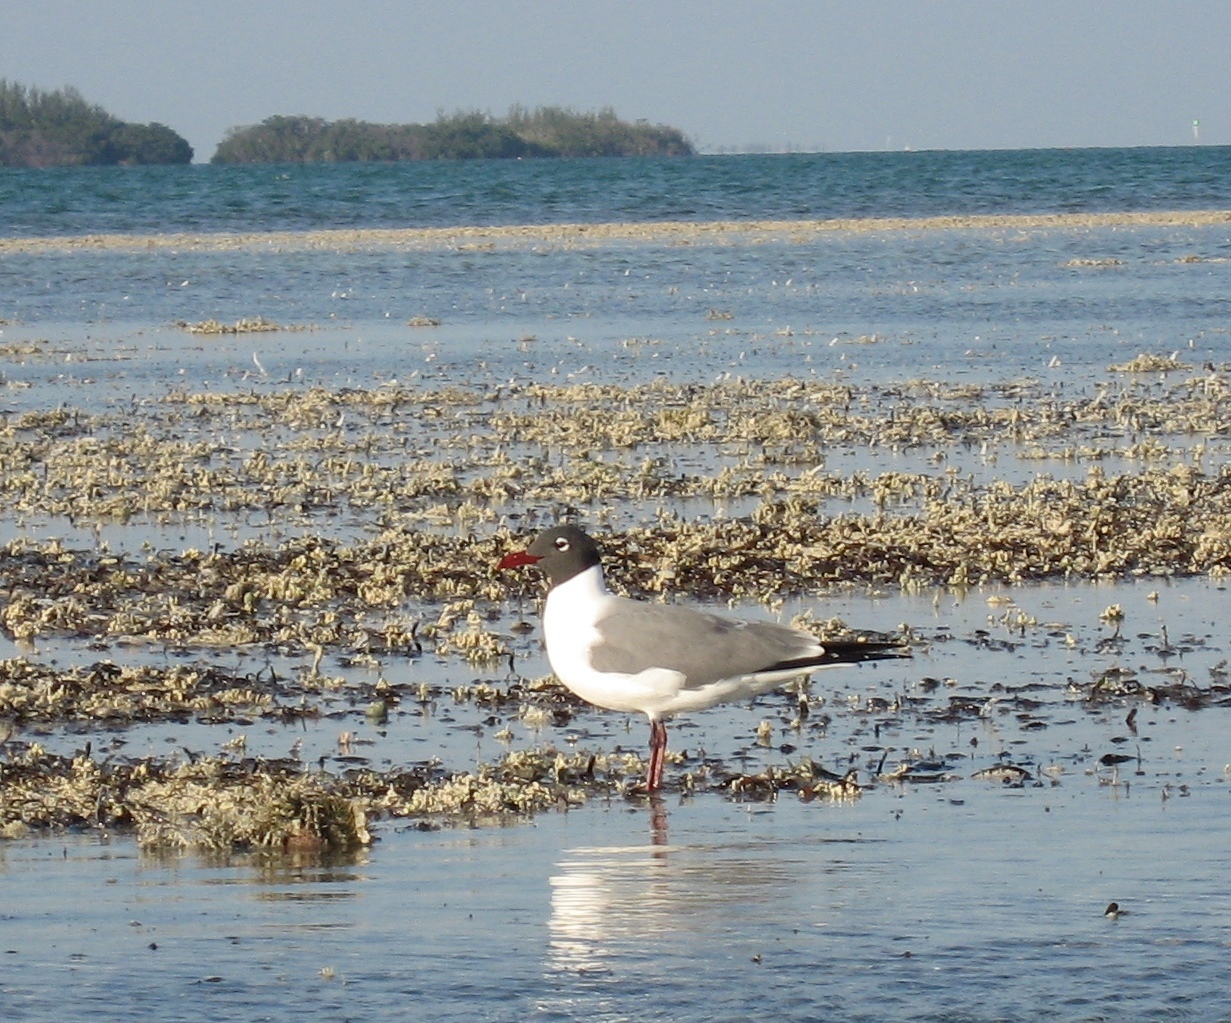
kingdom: Animalia
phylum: Chordata
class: Aves
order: Charadriiformes
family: Laridae
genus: Leucophaeus
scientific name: Leucophaeus atricilla
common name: Laughing gull
